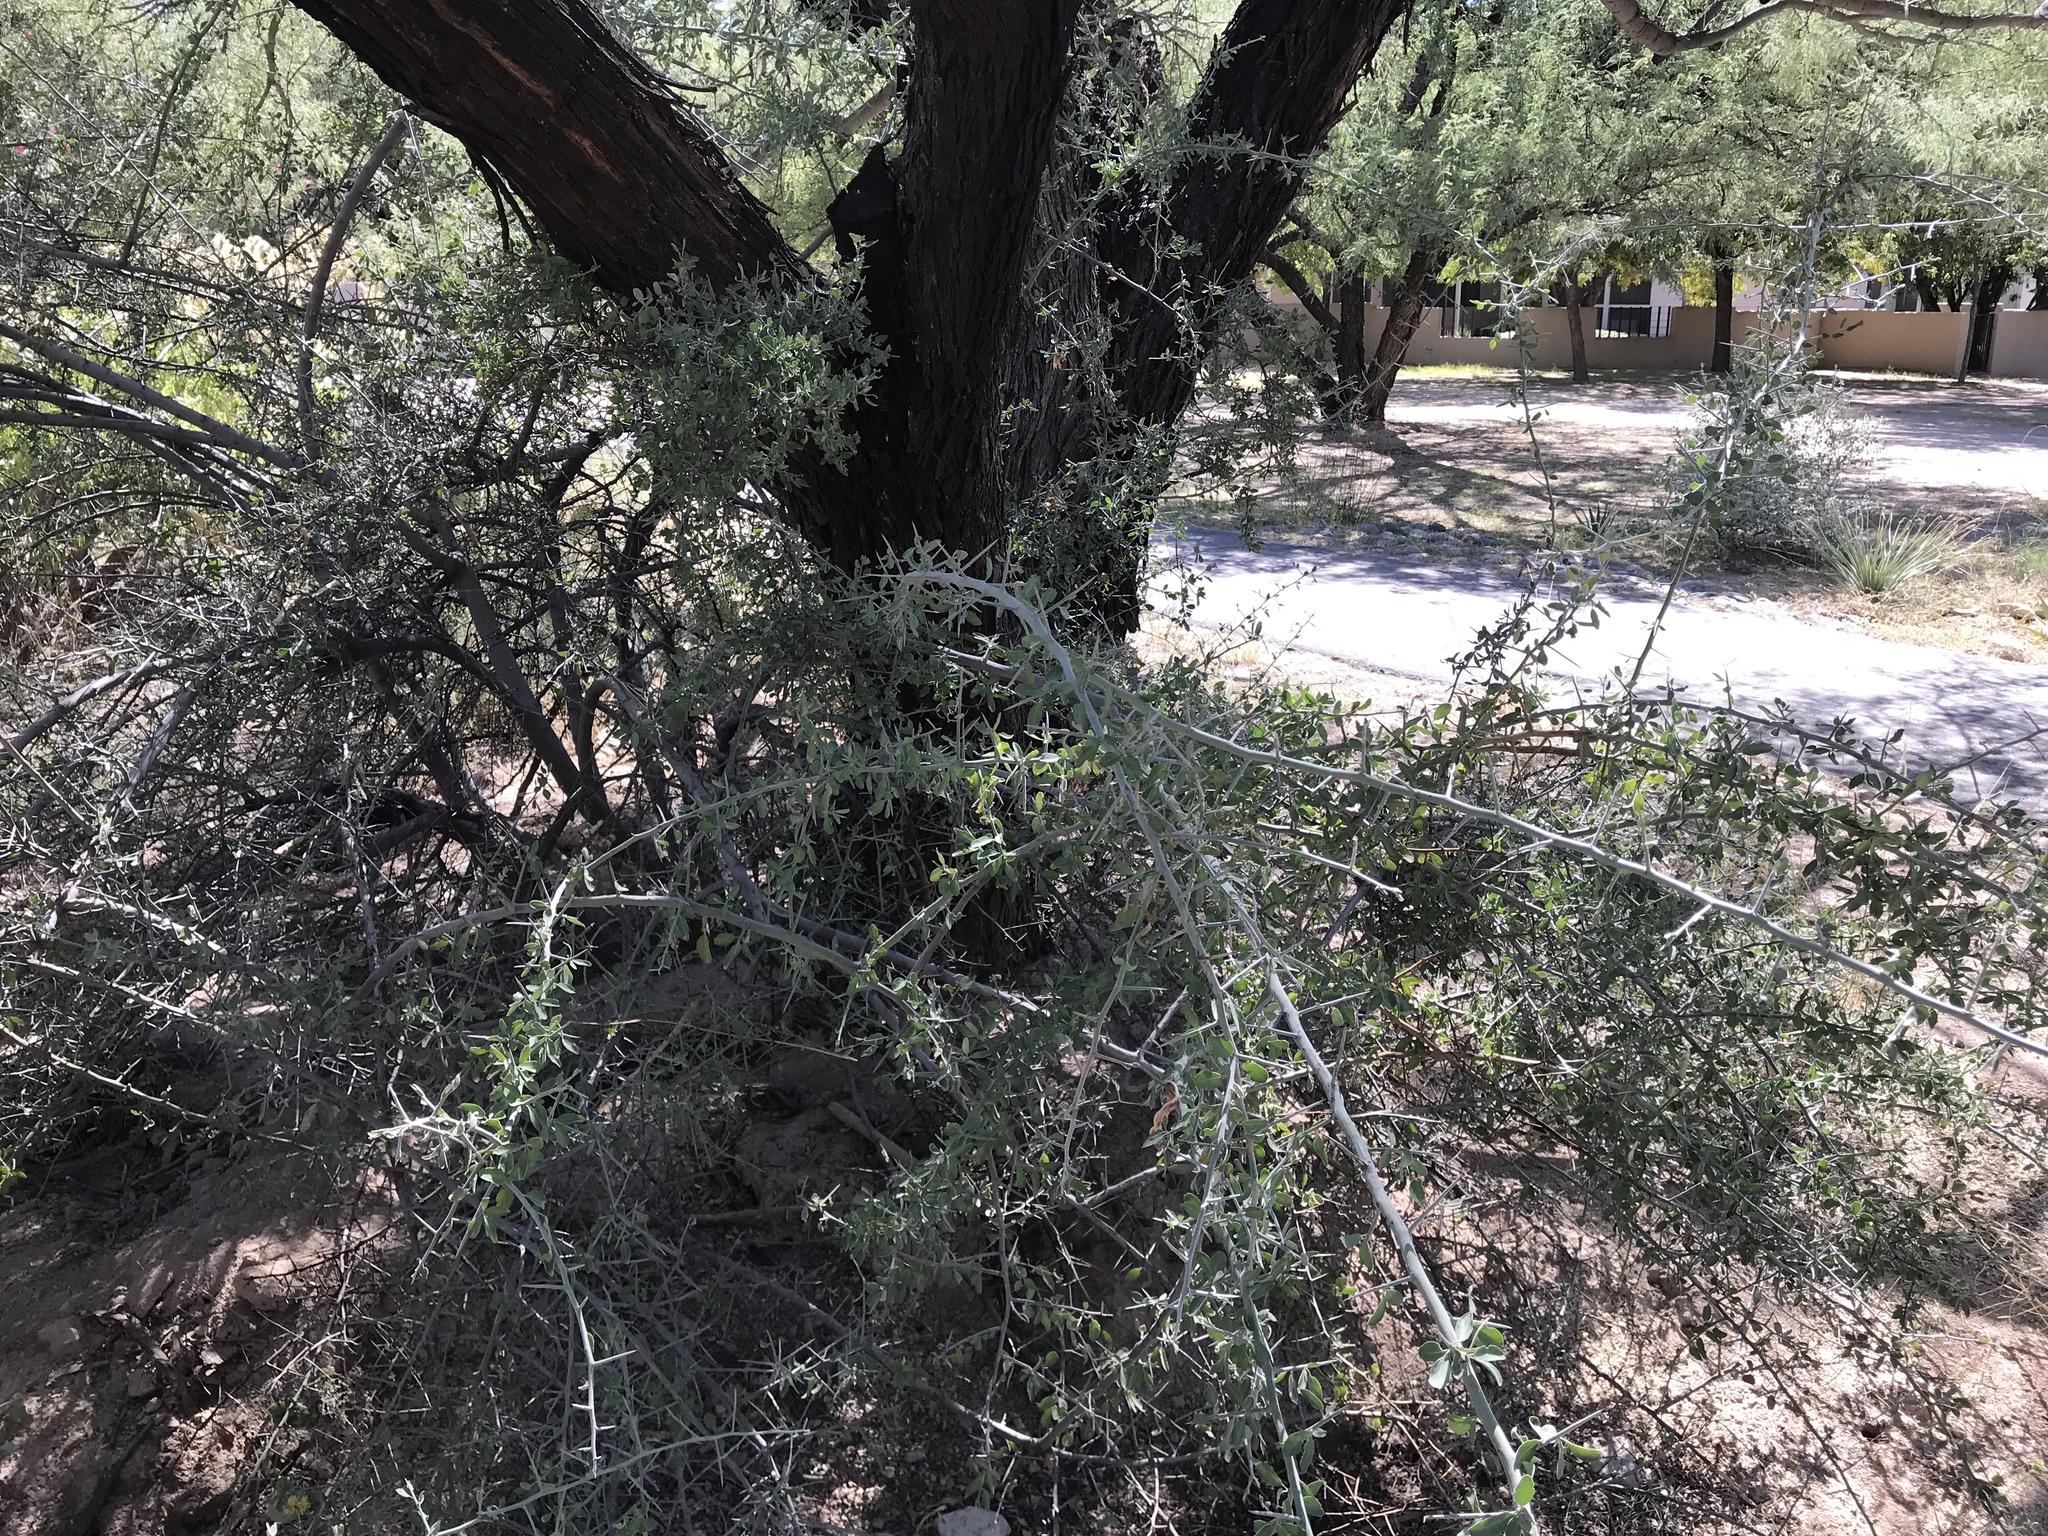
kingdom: Plantae
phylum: Tracheophyta
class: Magnoliopsida
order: Rosales
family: Rhamnaceae
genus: Sarcomphalus
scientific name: Sarcomphalus obtusifolius
